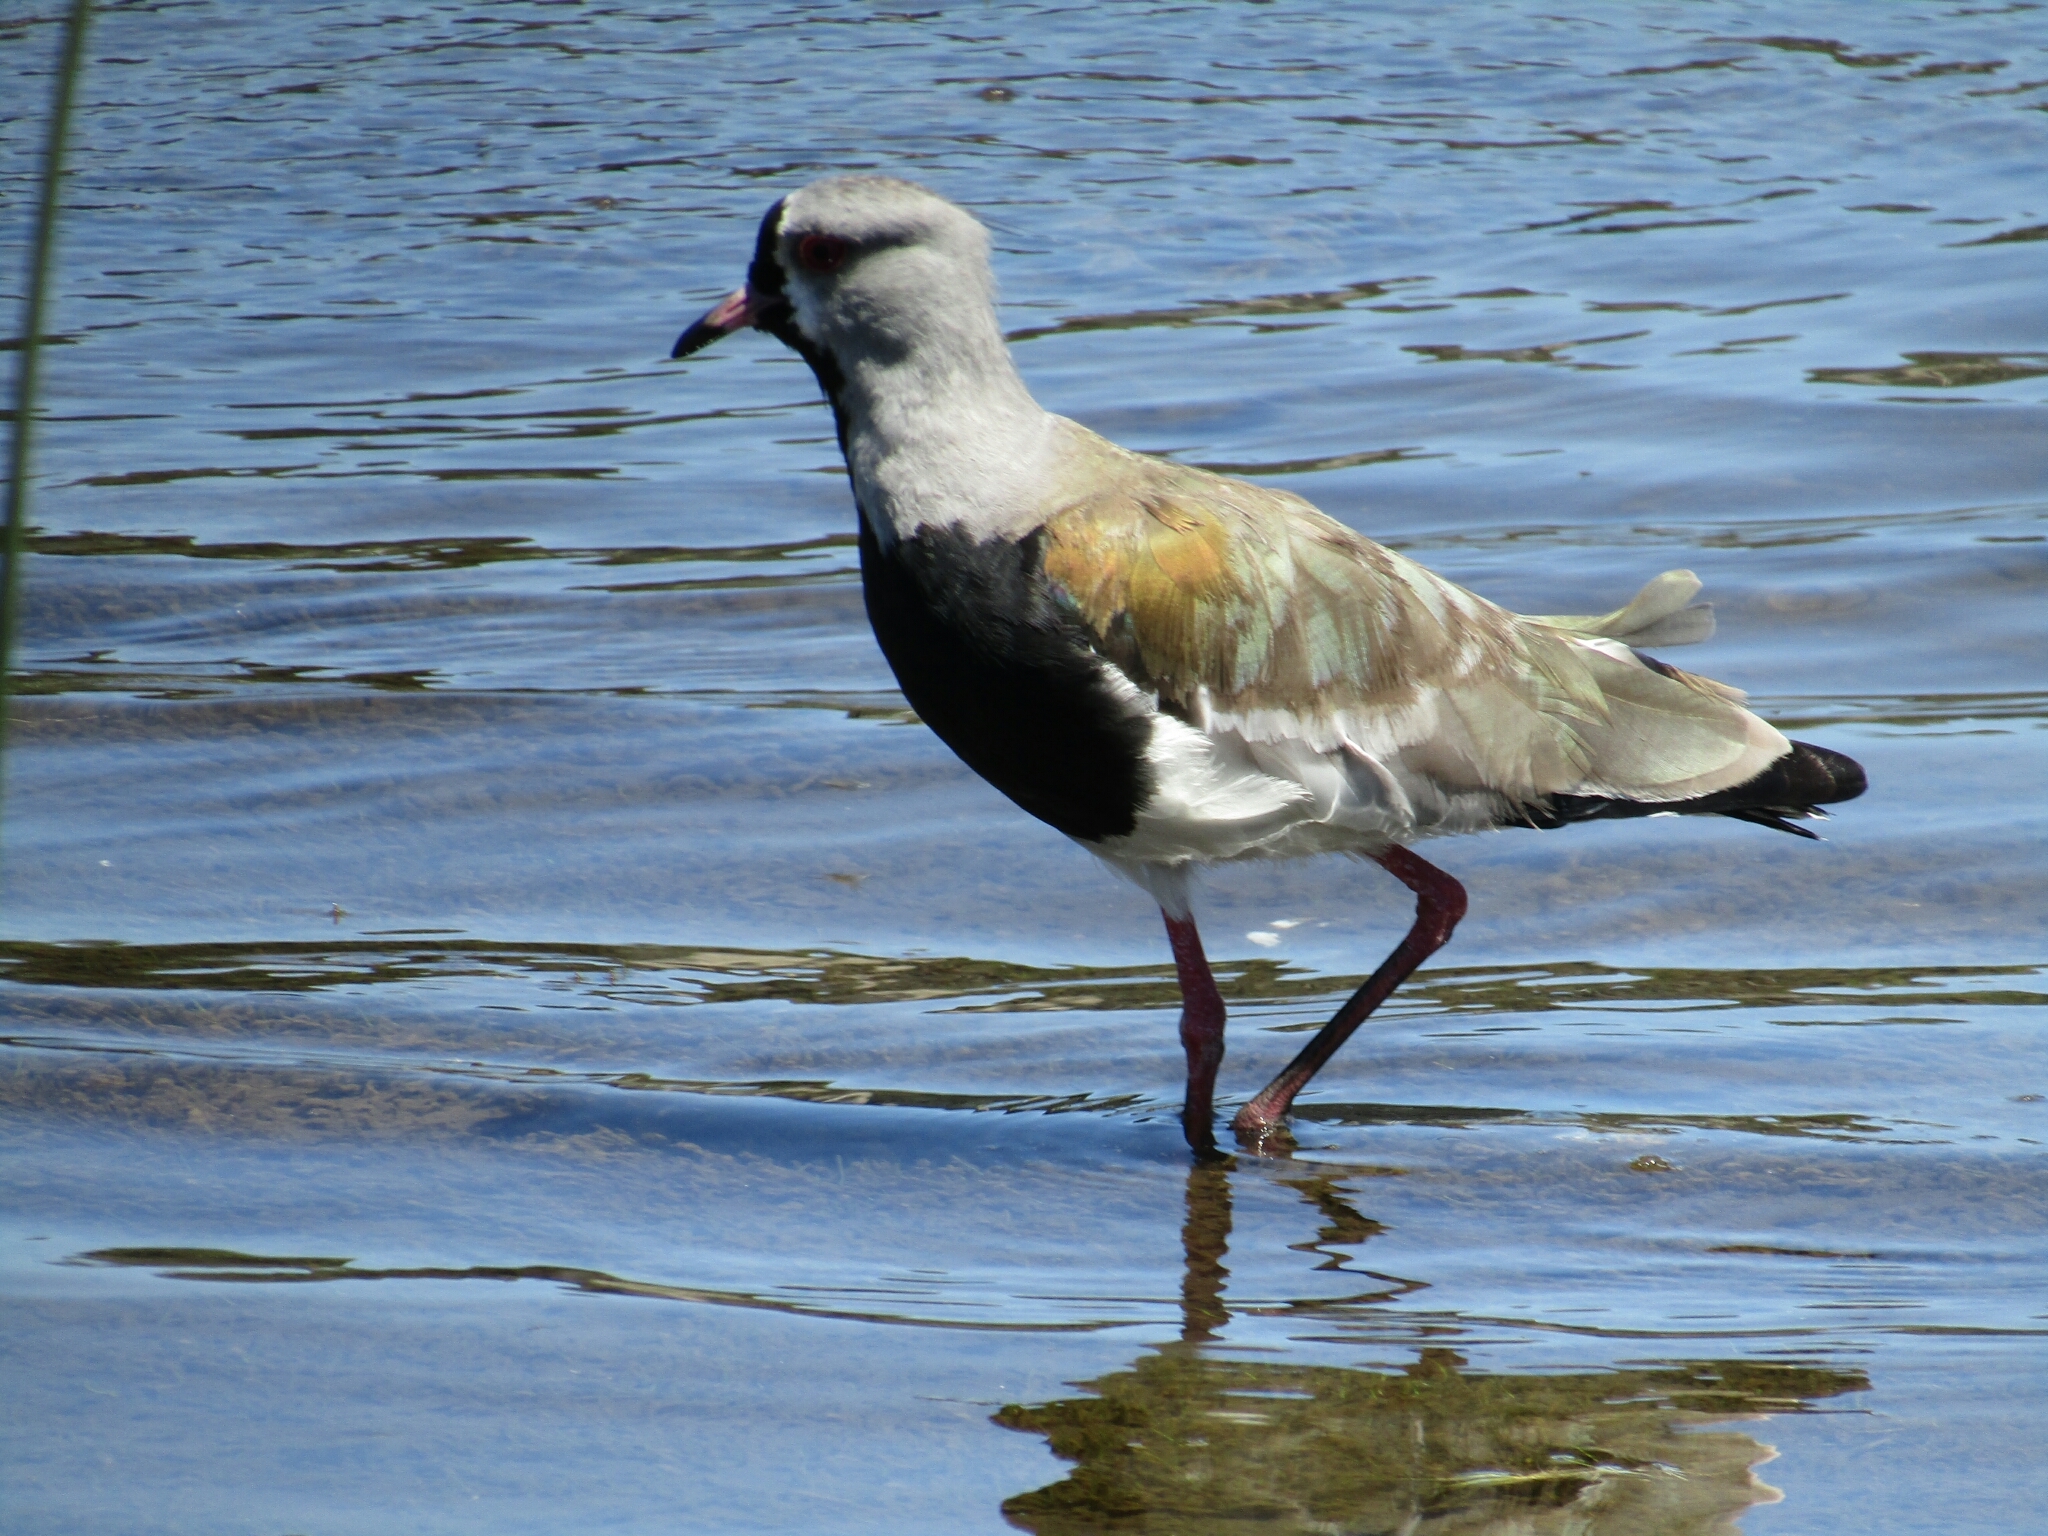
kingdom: Animalia
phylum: Chordata
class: Aves
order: Charadriiformes
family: Charadriidae
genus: Vanellus
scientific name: Vanellus chilensis
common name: Southern lapwing
